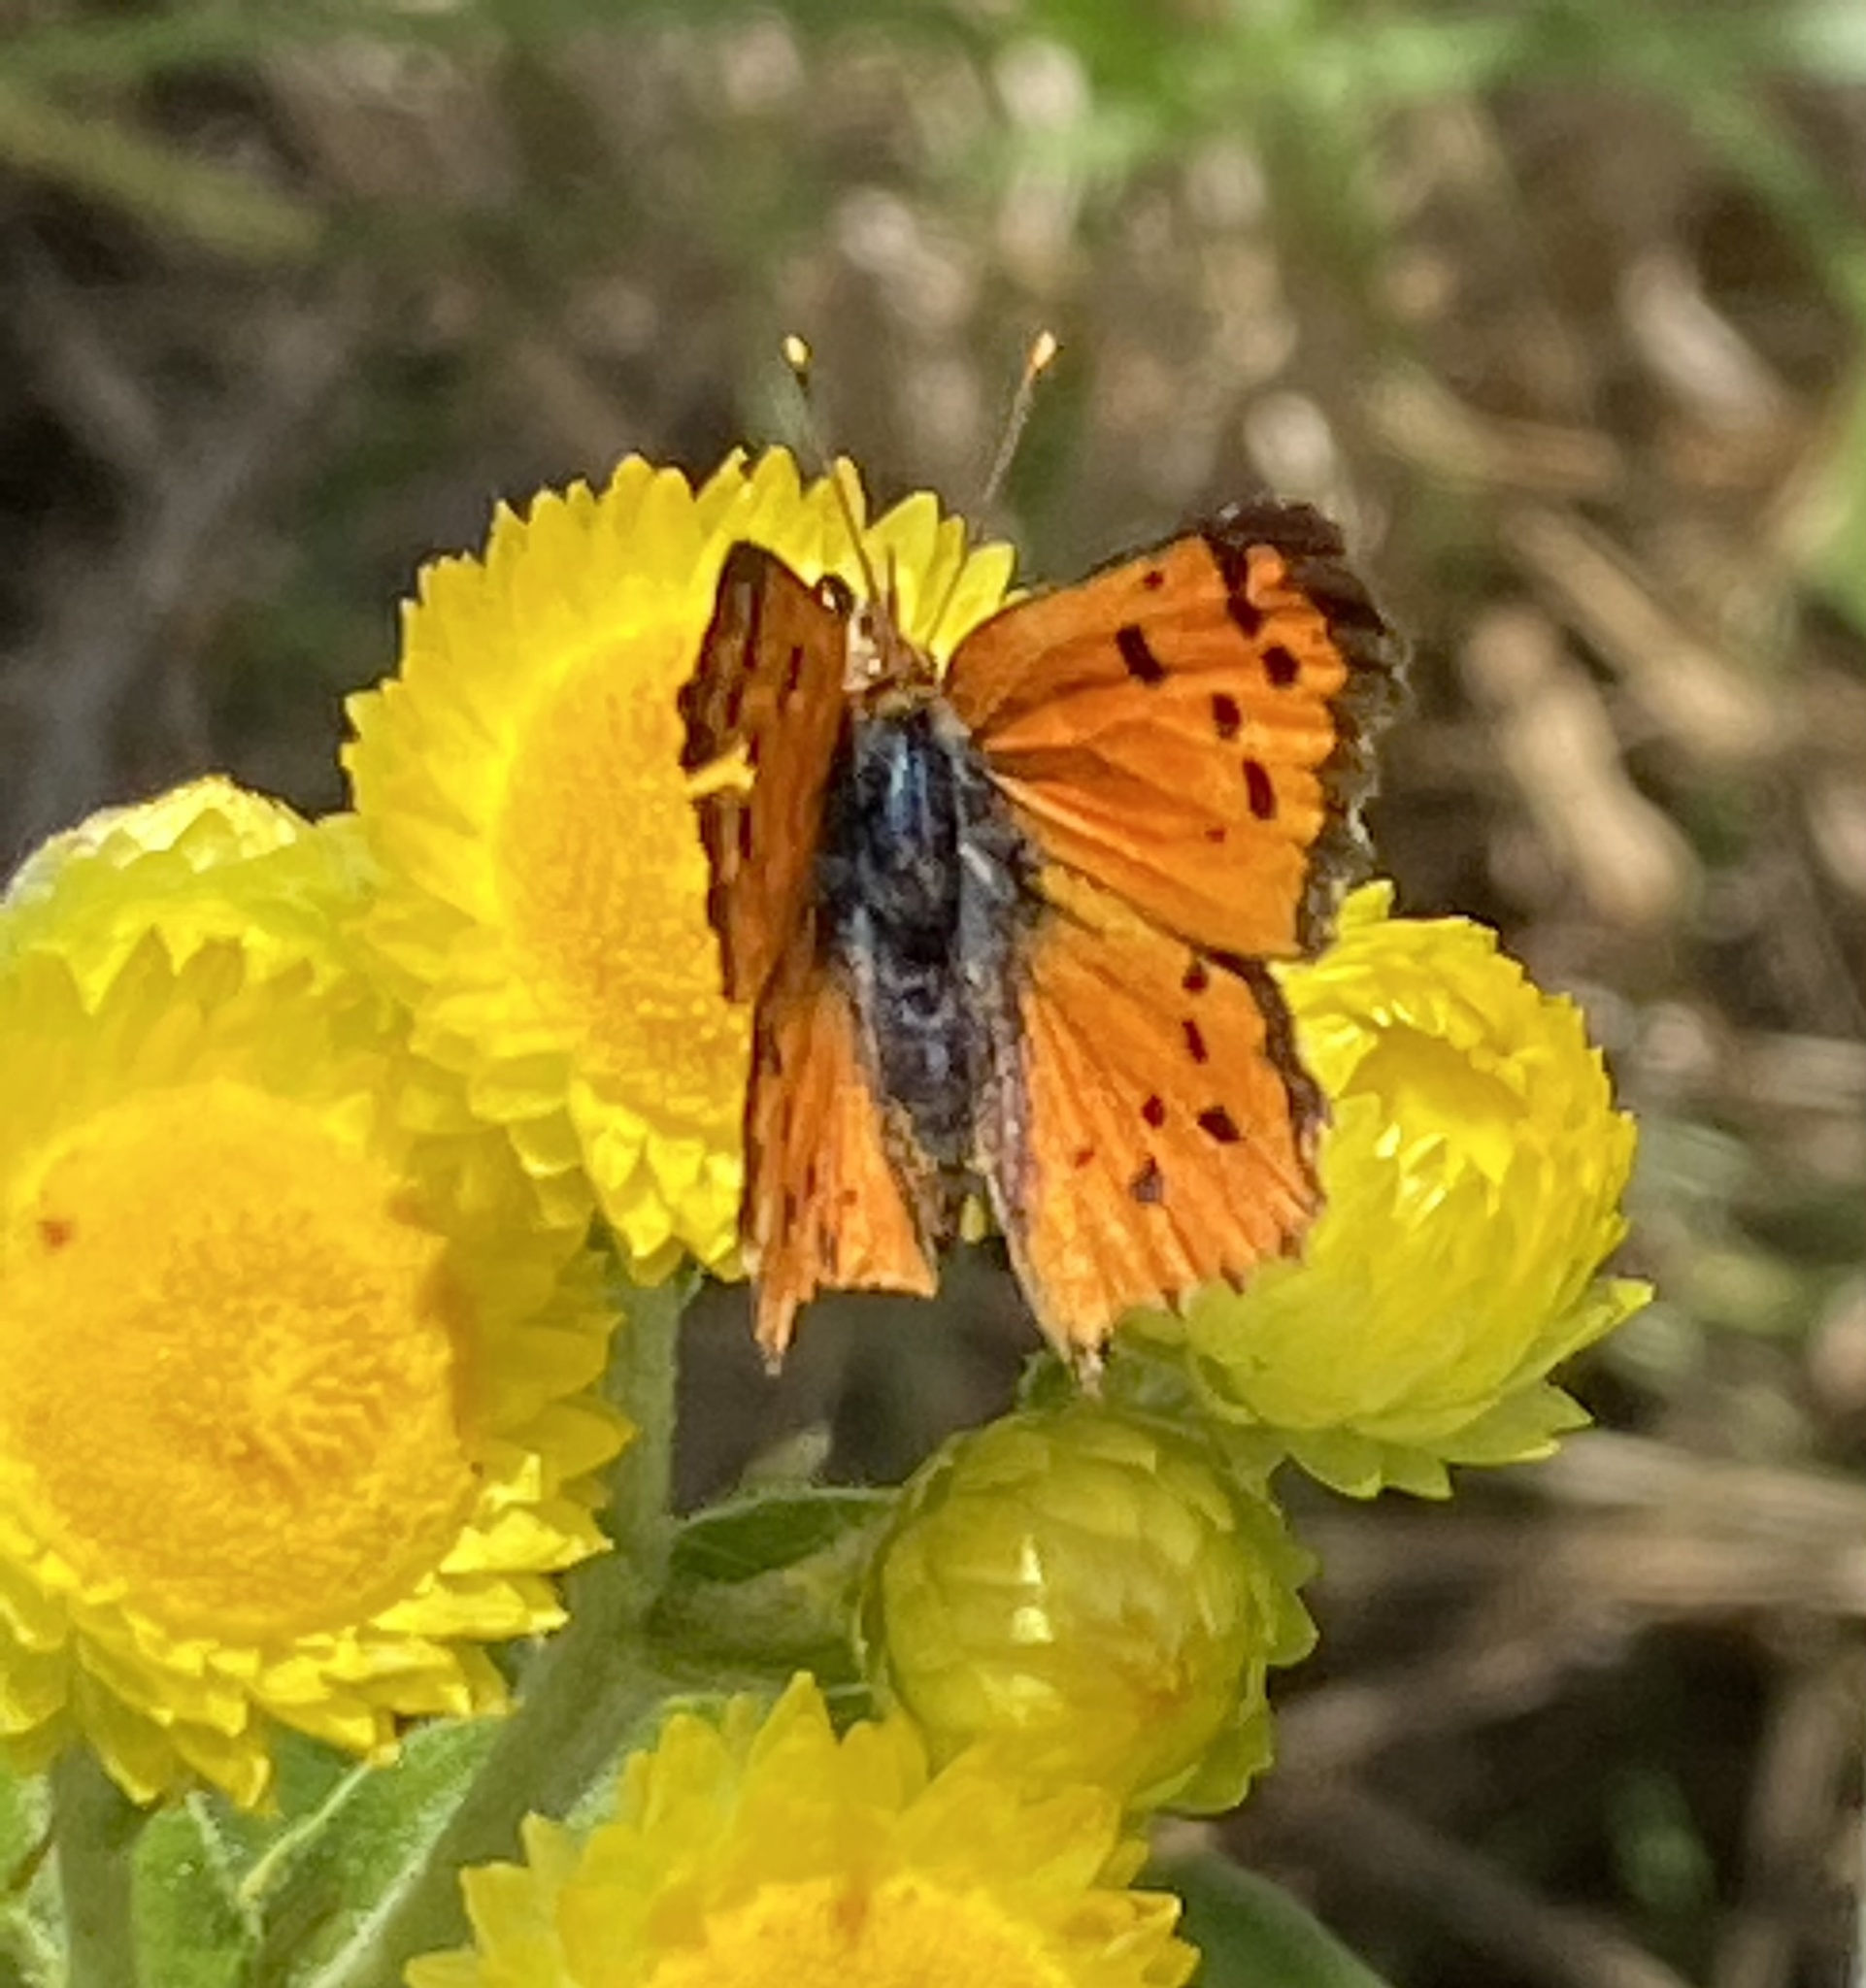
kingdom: Animalia
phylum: Arthropoda
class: Insecta
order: Lepidoptera
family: Lycaenidae
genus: Chrysoritis
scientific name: Chrysoritis
